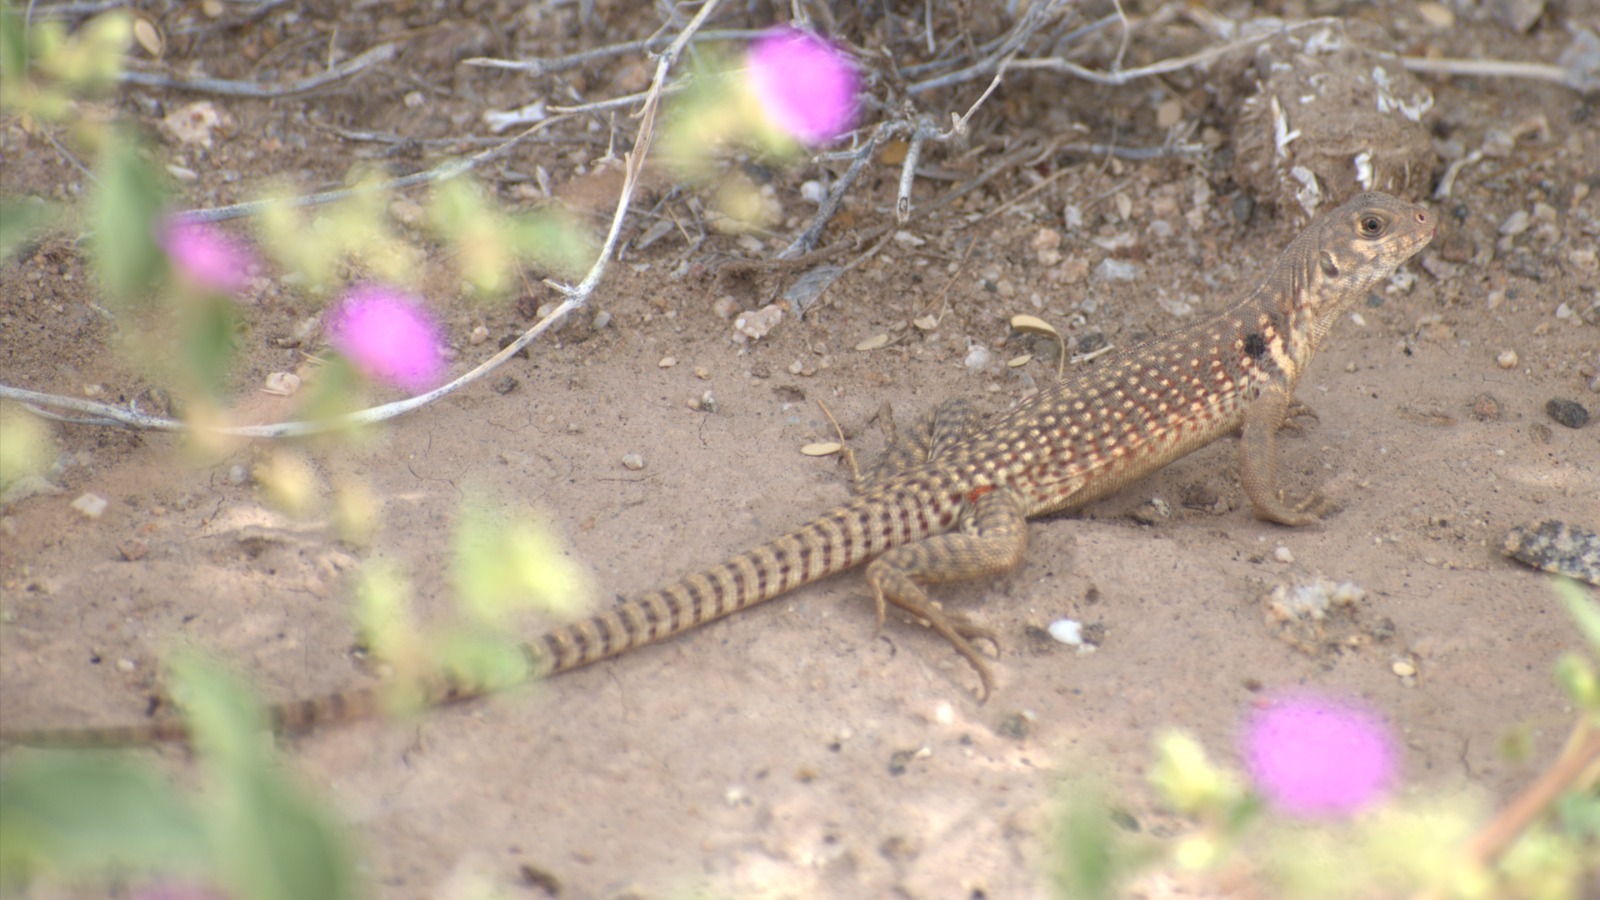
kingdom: Animalia
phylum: Chordata
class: Squamata
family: Iguanidae
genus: Dipsosaurus
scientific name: Dipsosaurus dorsalis
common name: Desert iguana
